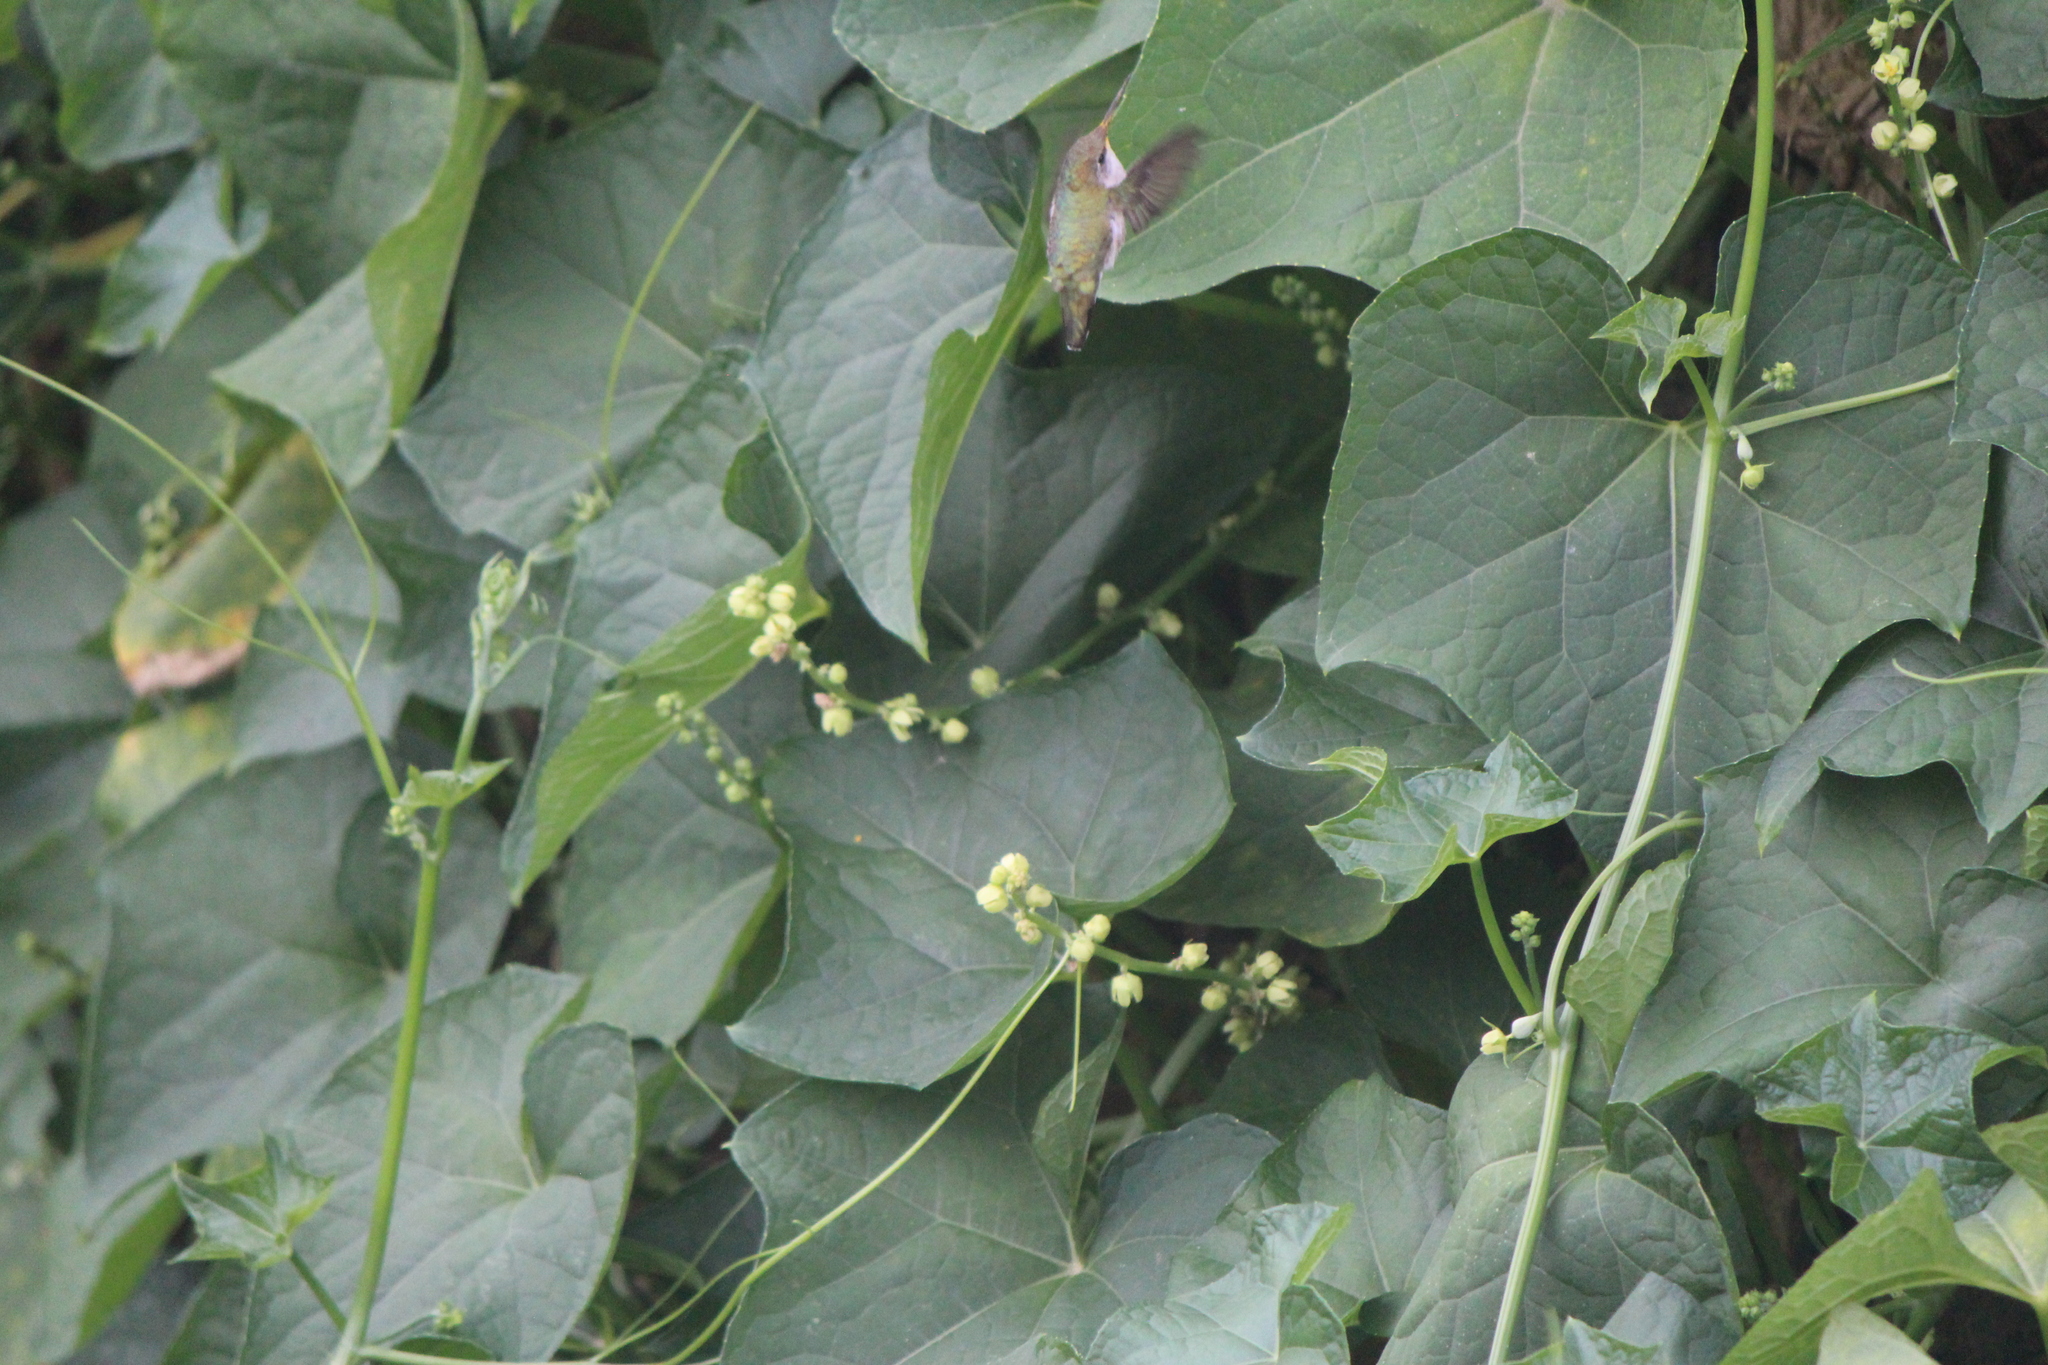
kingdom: Animalia
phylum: Chordata
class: Aves
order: Apodiformes
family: Trochilidae
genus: Archilochus
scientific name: Archilochus colubris
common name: Ruby-throated hummingbird
